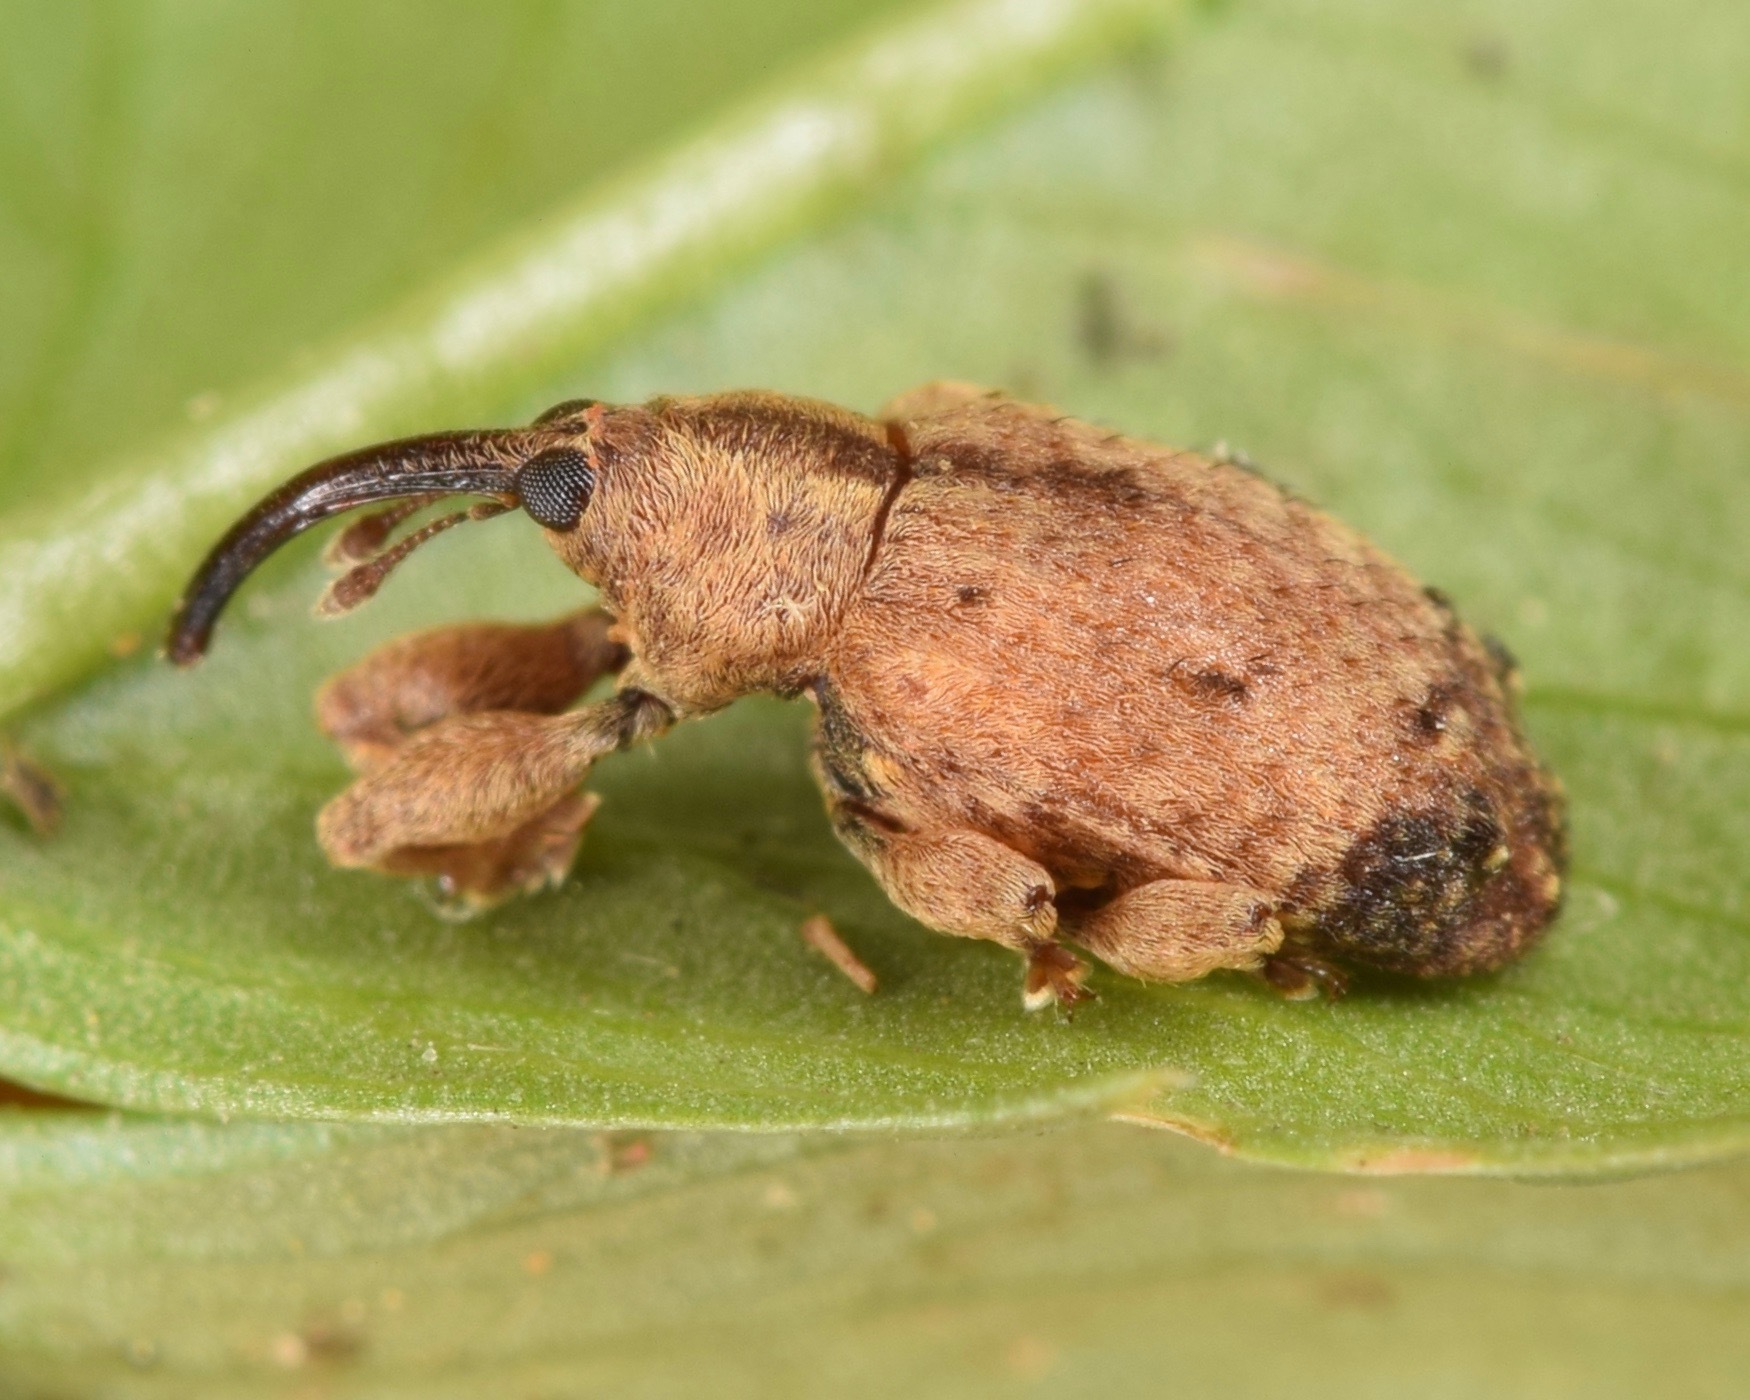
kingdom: Animalia
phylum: Arthropoda
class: Insecta
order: Coleoptera
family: Curculionidae
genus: Ochyromera
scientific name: Ochyromera ligustri
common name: Weevil
